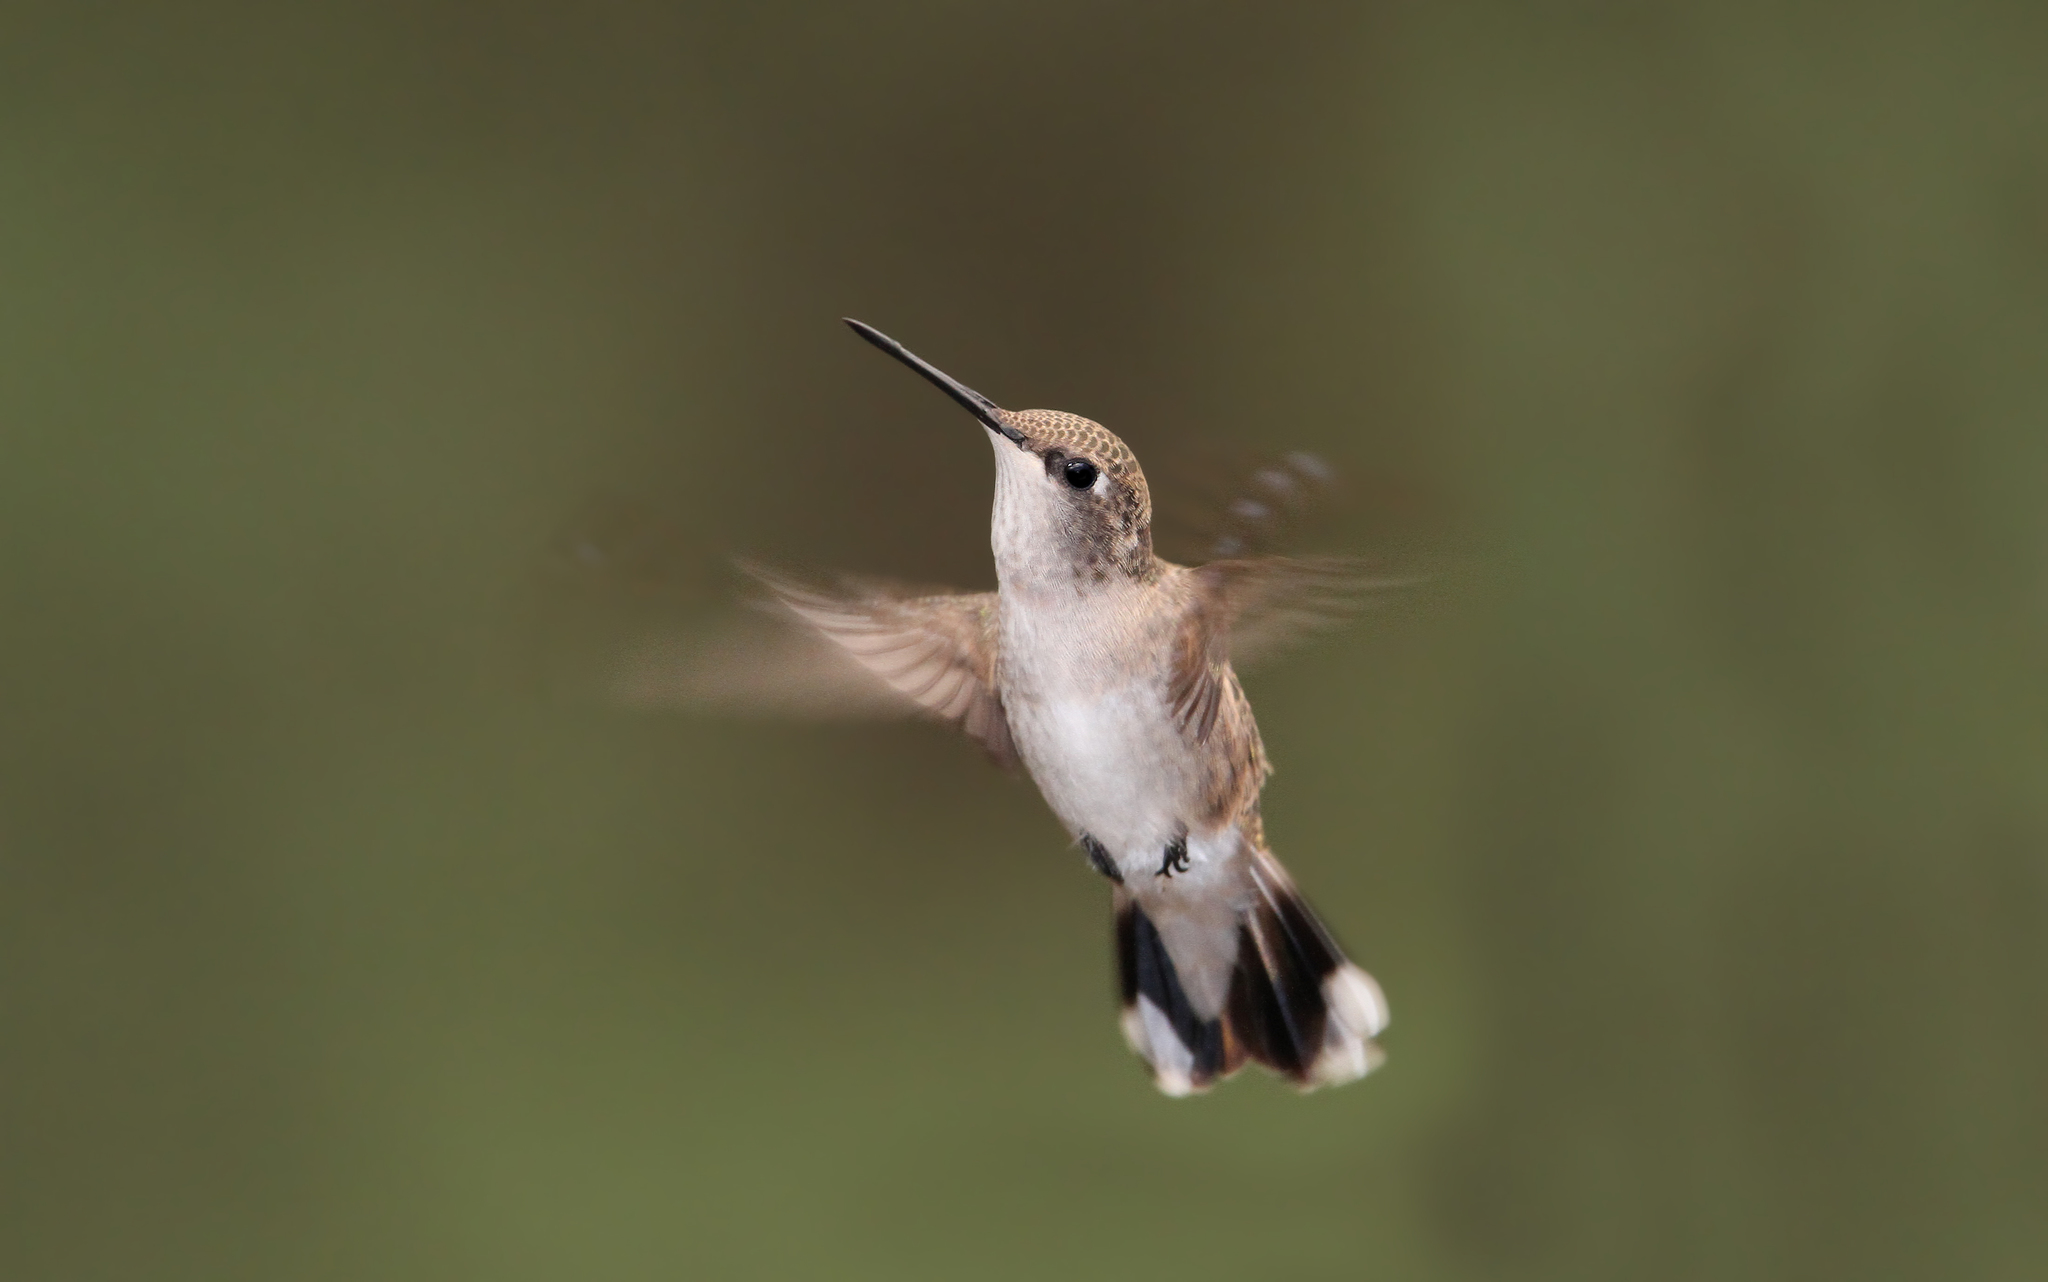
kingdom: Animalia
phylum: Chordata
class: Aves
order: Apodiformes
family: Trochilidae
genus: Archilochus
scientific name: Archilochus alexandri
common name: Black-chinned hummingbird
